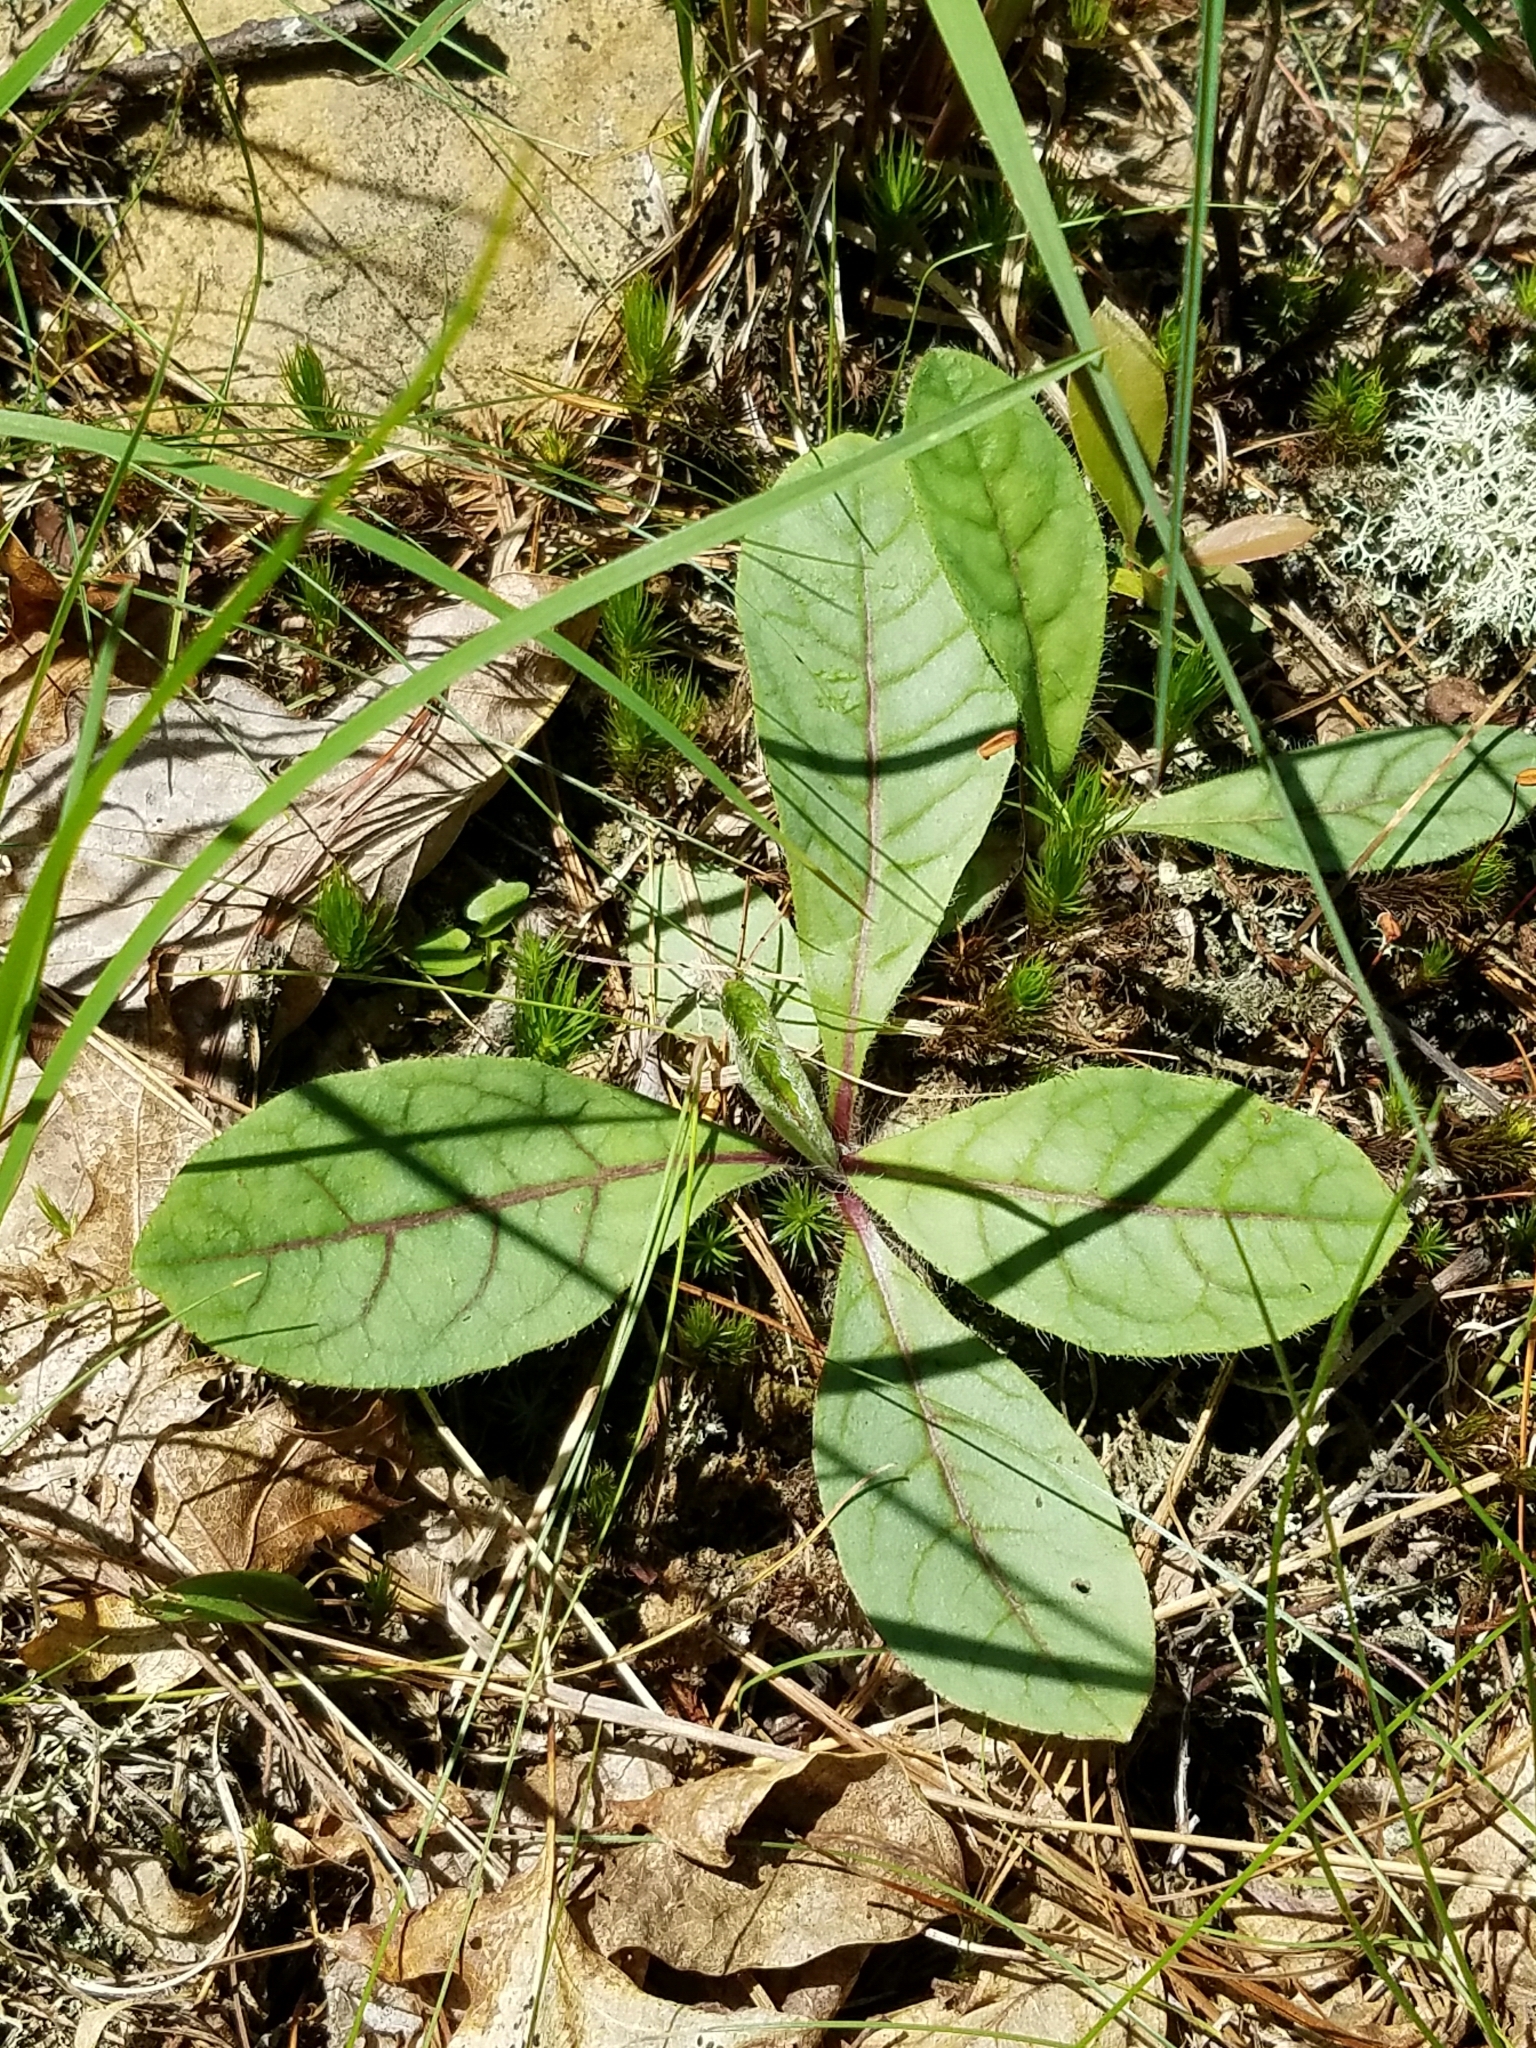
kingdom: Plantae
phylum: Tracheophyta
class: Magnoliopsida
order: Asterales
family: Asteraceae
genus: Hieracium
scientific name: Hieracium venosum
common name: Rattlesnake hawkweed
